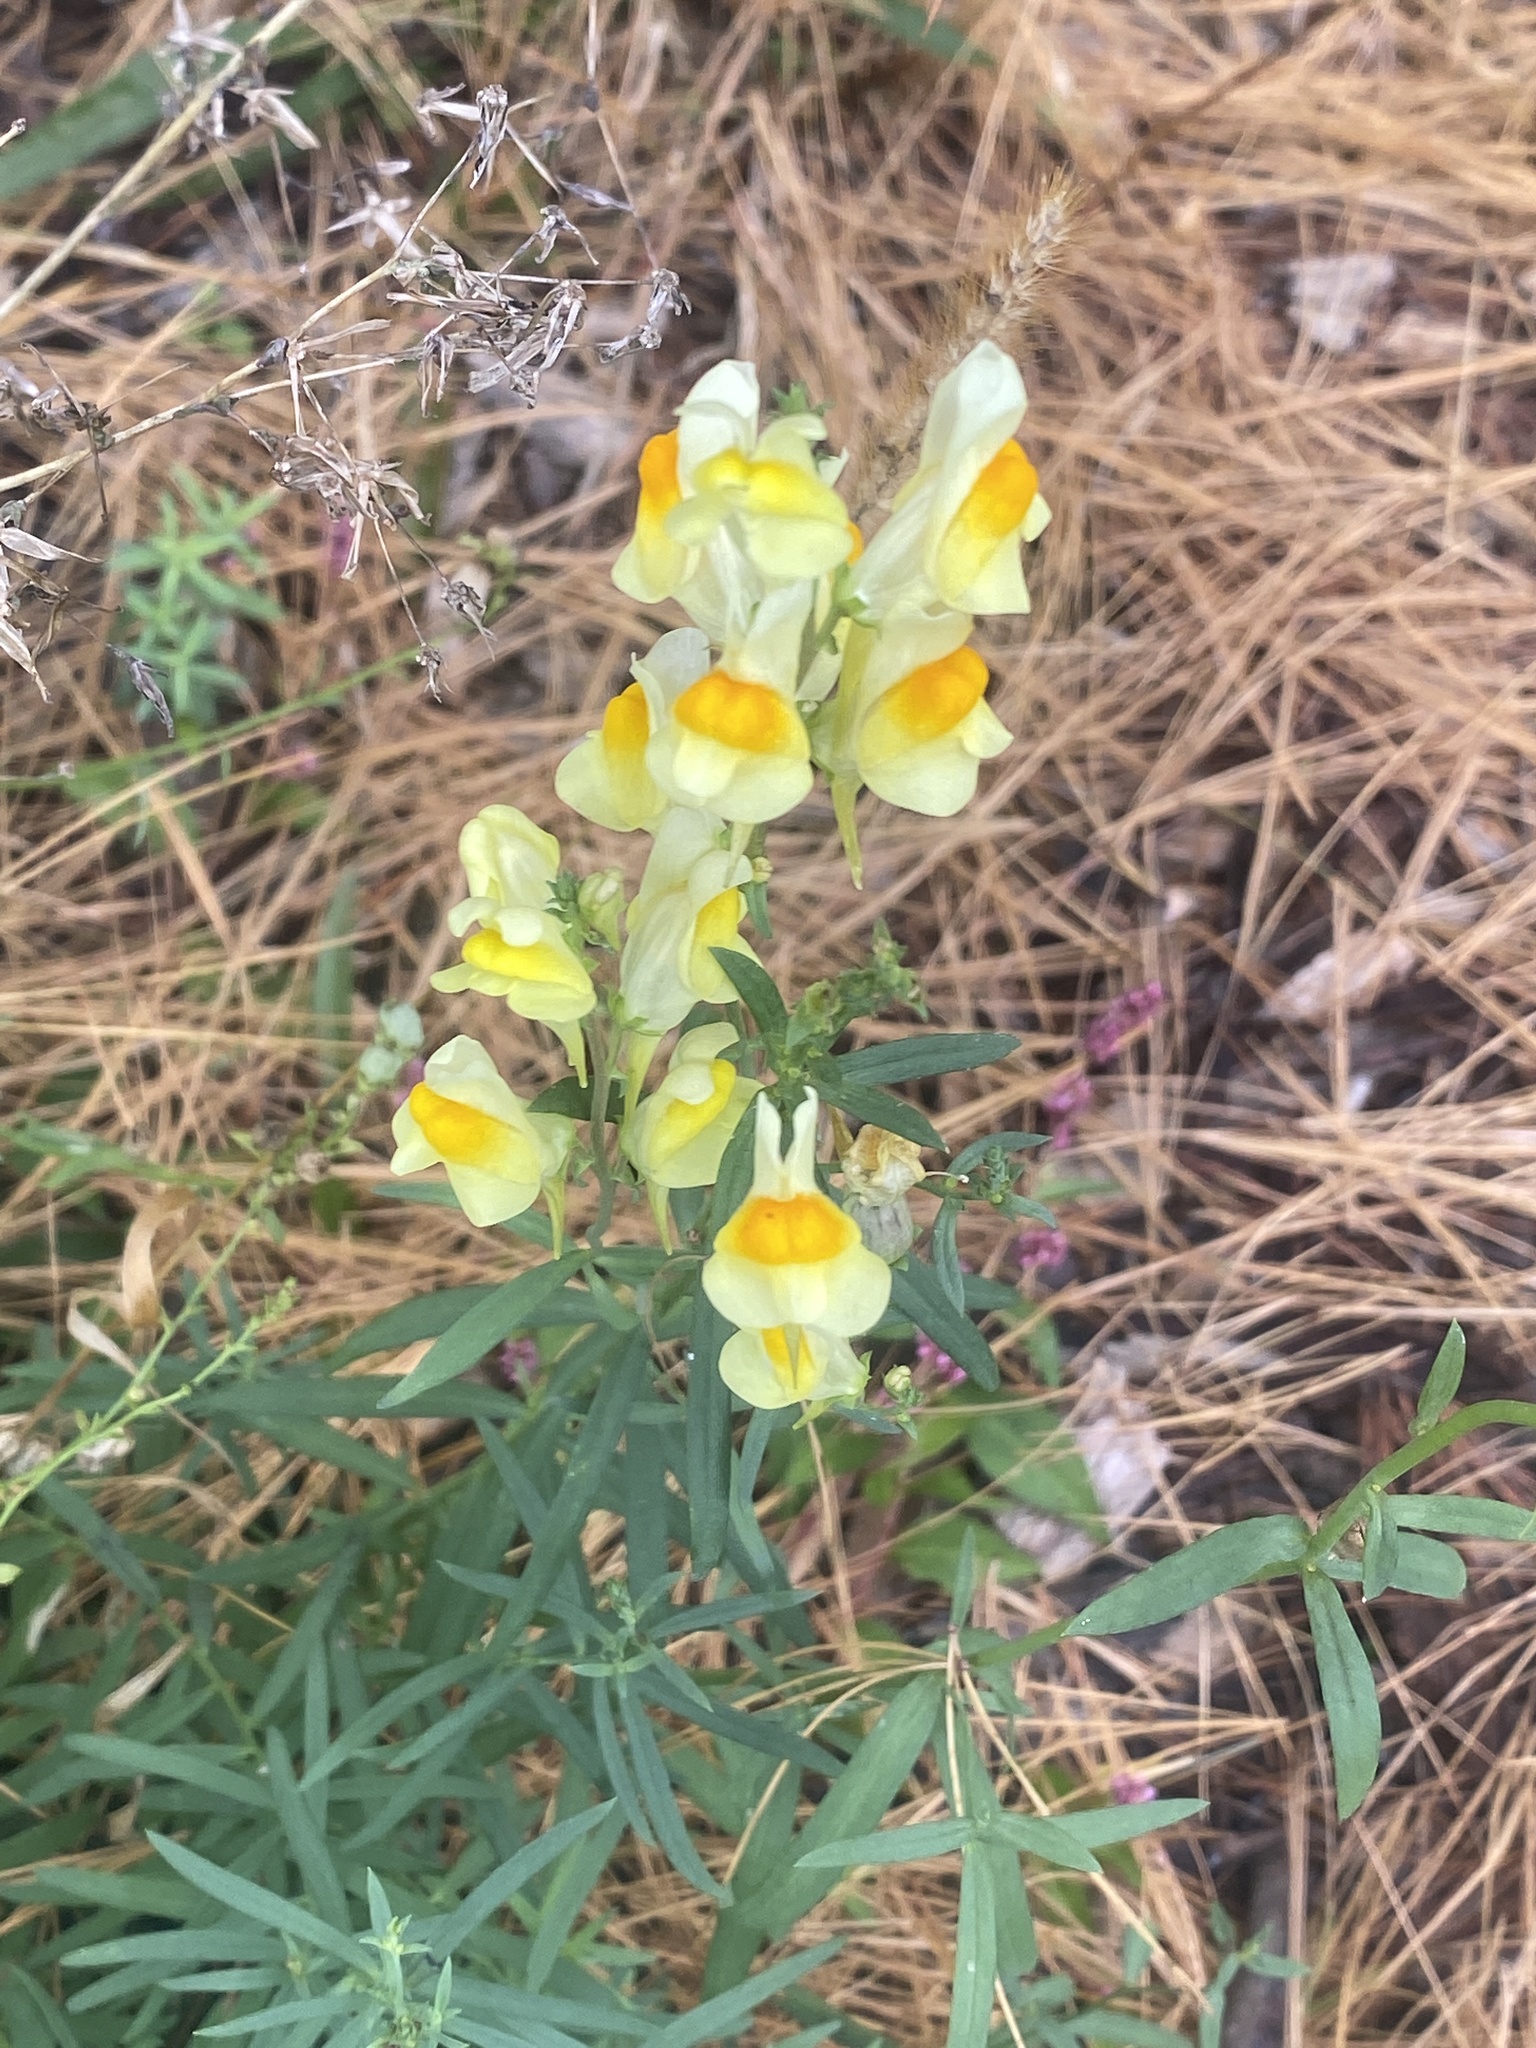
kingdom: Plantae
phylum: Tracheophyta
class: Magnoliopsida
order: Lamiales
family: Plantaginaceae
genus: Linaria
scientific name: Linaria vulgaris
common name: Butter and eggs
